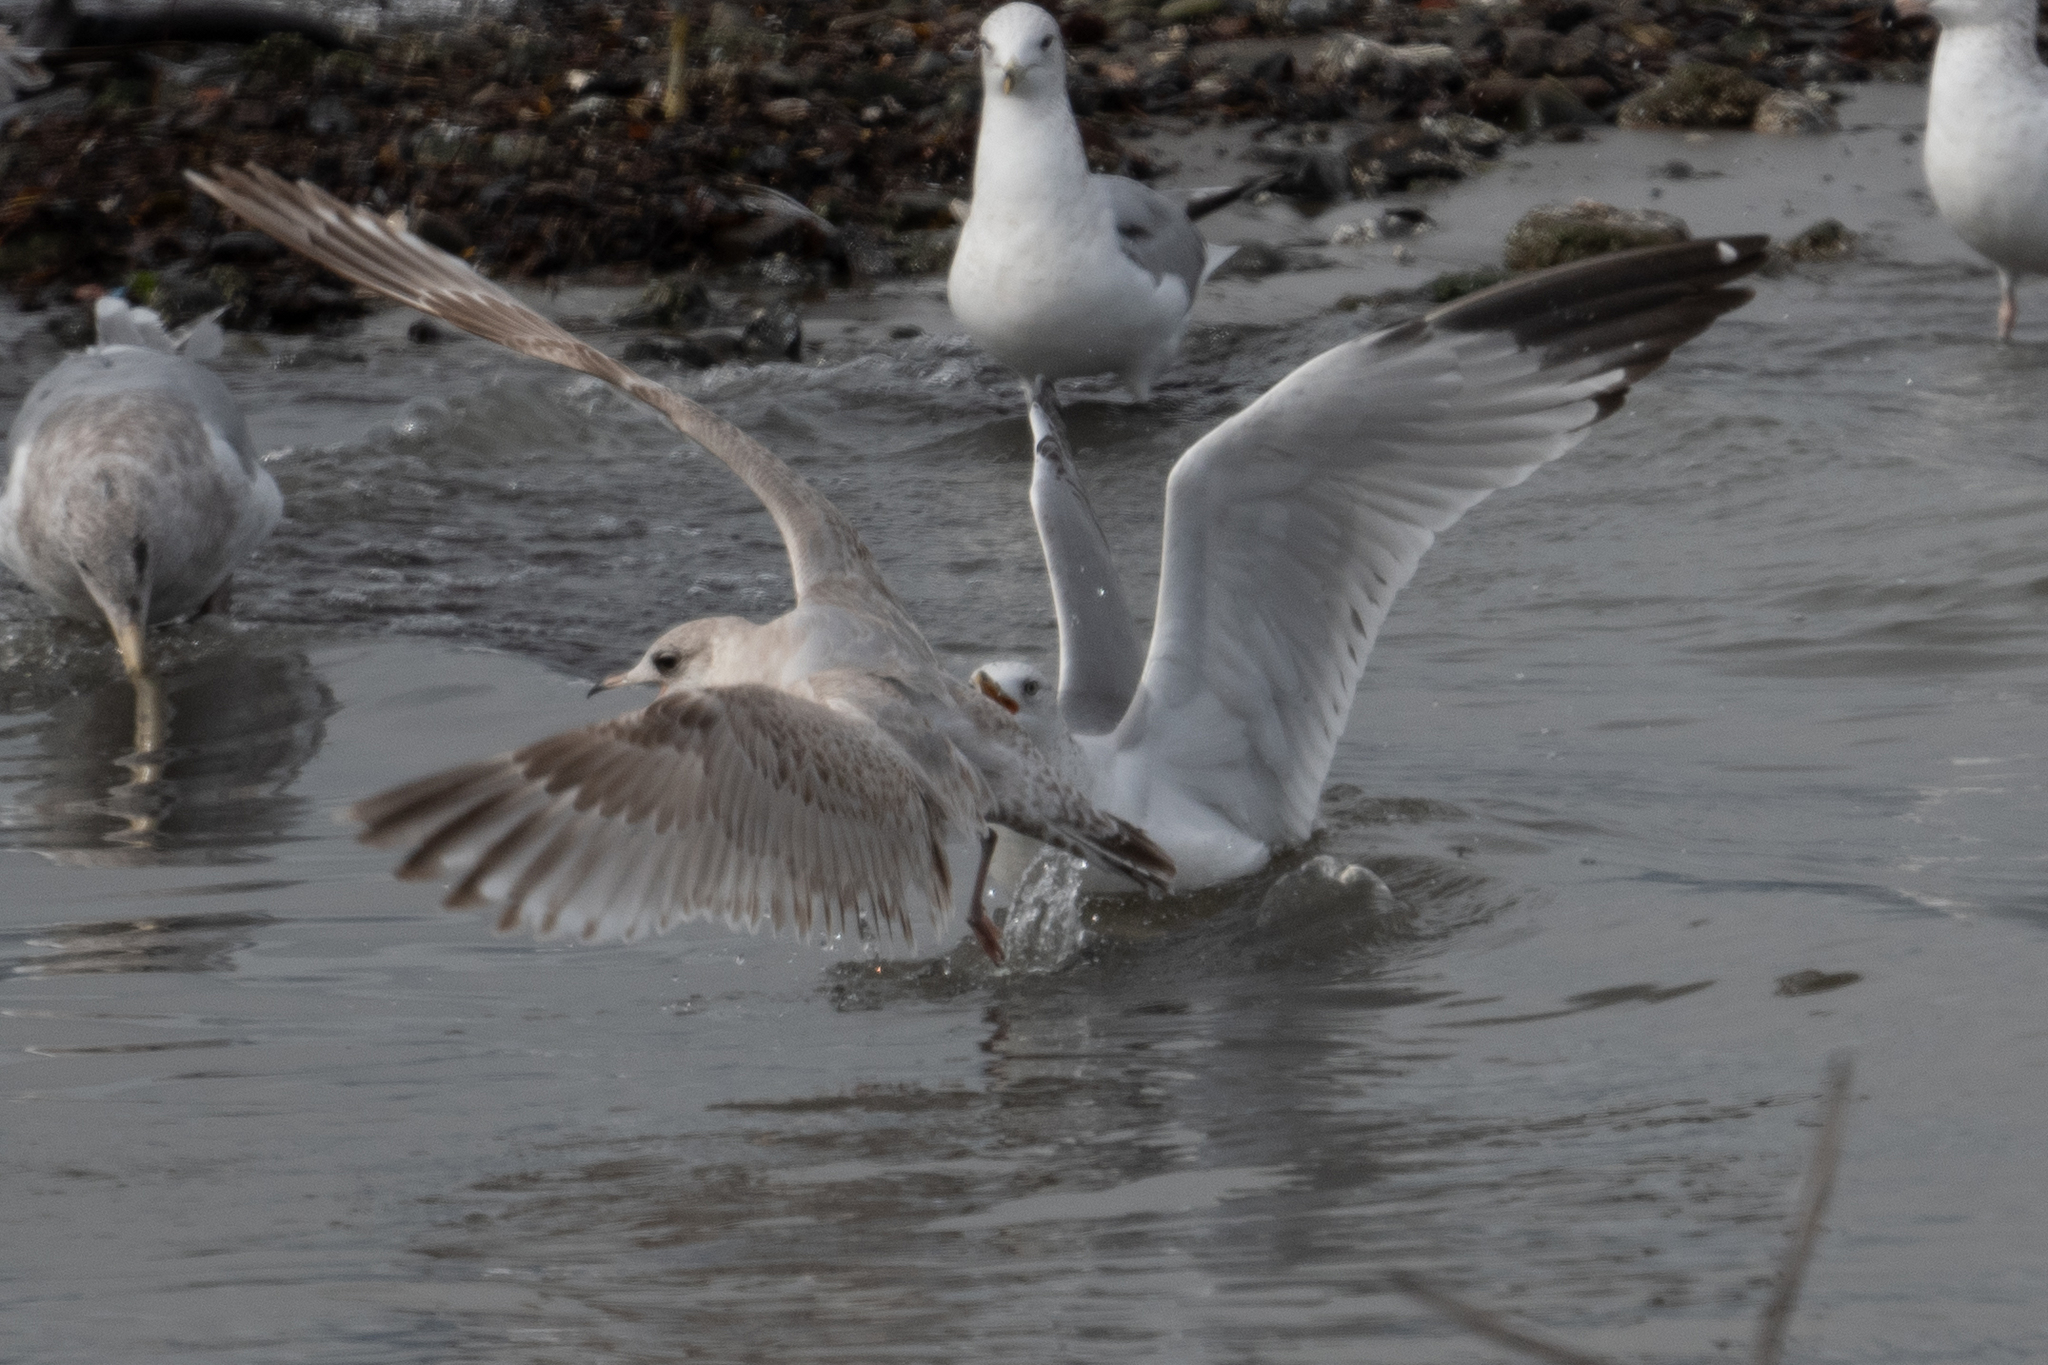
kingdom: Animalia
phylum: Chordata
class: Aves
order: Charadriiformes
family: Laridae
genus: Larus
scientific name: Larus delawarensis
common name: Ring-billed gull
